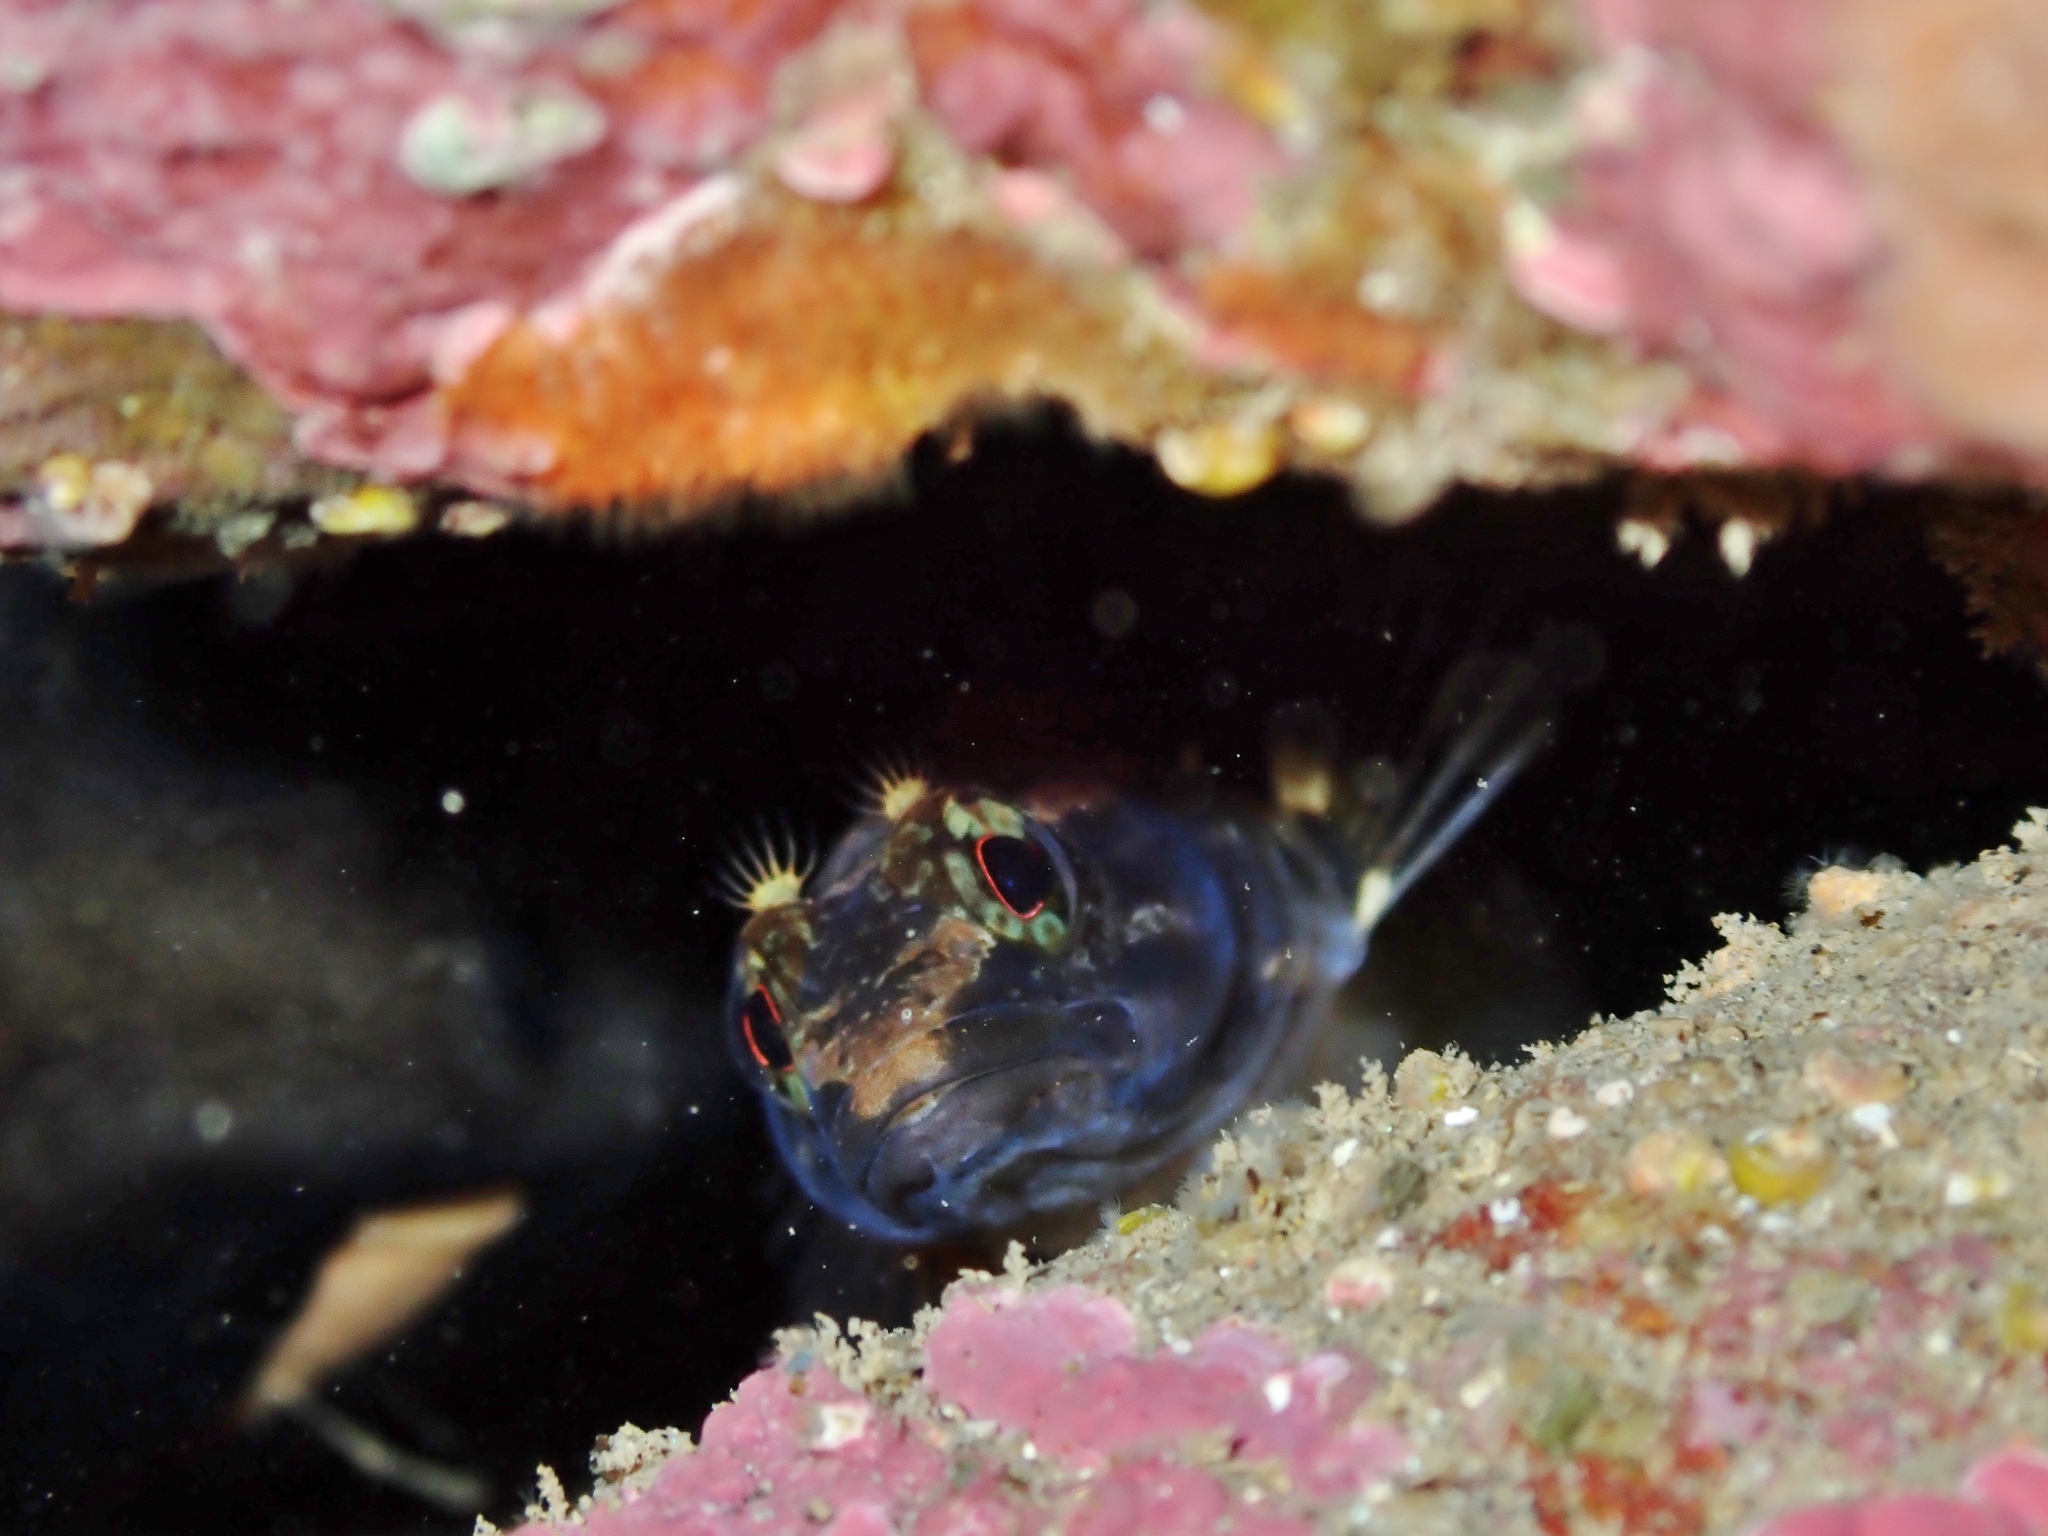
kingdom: Animalia
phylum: Chordata
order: Perciformes
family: Tripterygiidae
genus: Ruanoho
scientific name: Ruanoho decemdigitatus
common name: Longfinned triplefin
